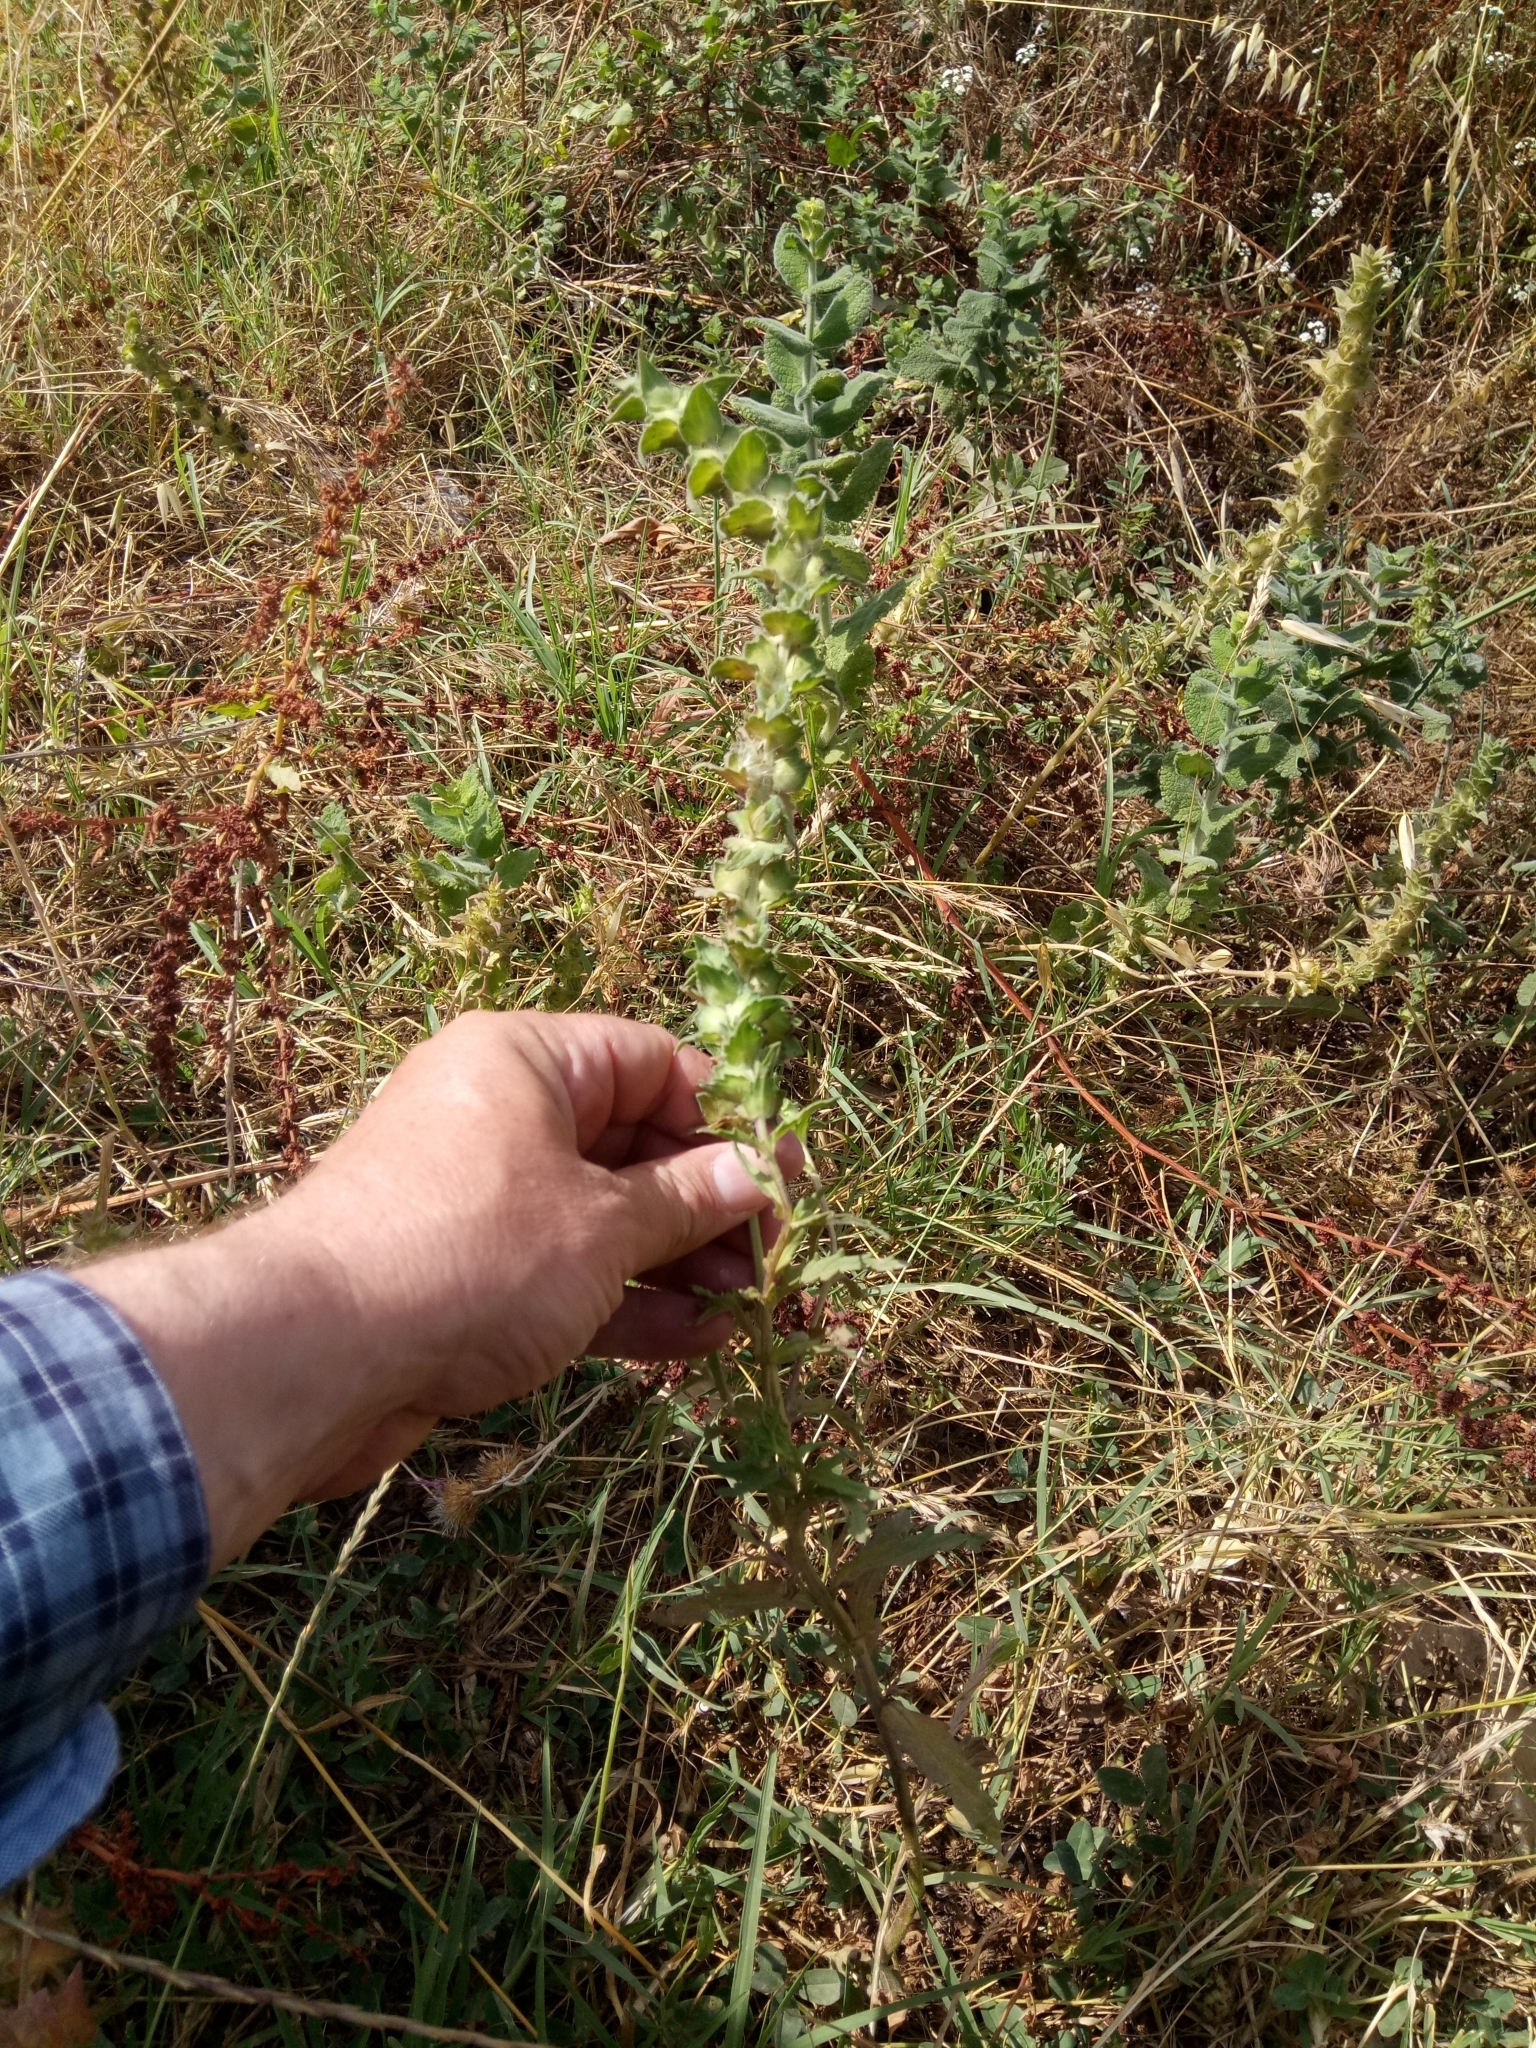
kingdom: Plantae
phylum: Tracheophyta
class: Magnoliopsida
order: Lamiales
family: Orobanchaceae
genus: Bellardia
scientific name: Bellardia trixago
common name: Mediterranean lineseed
